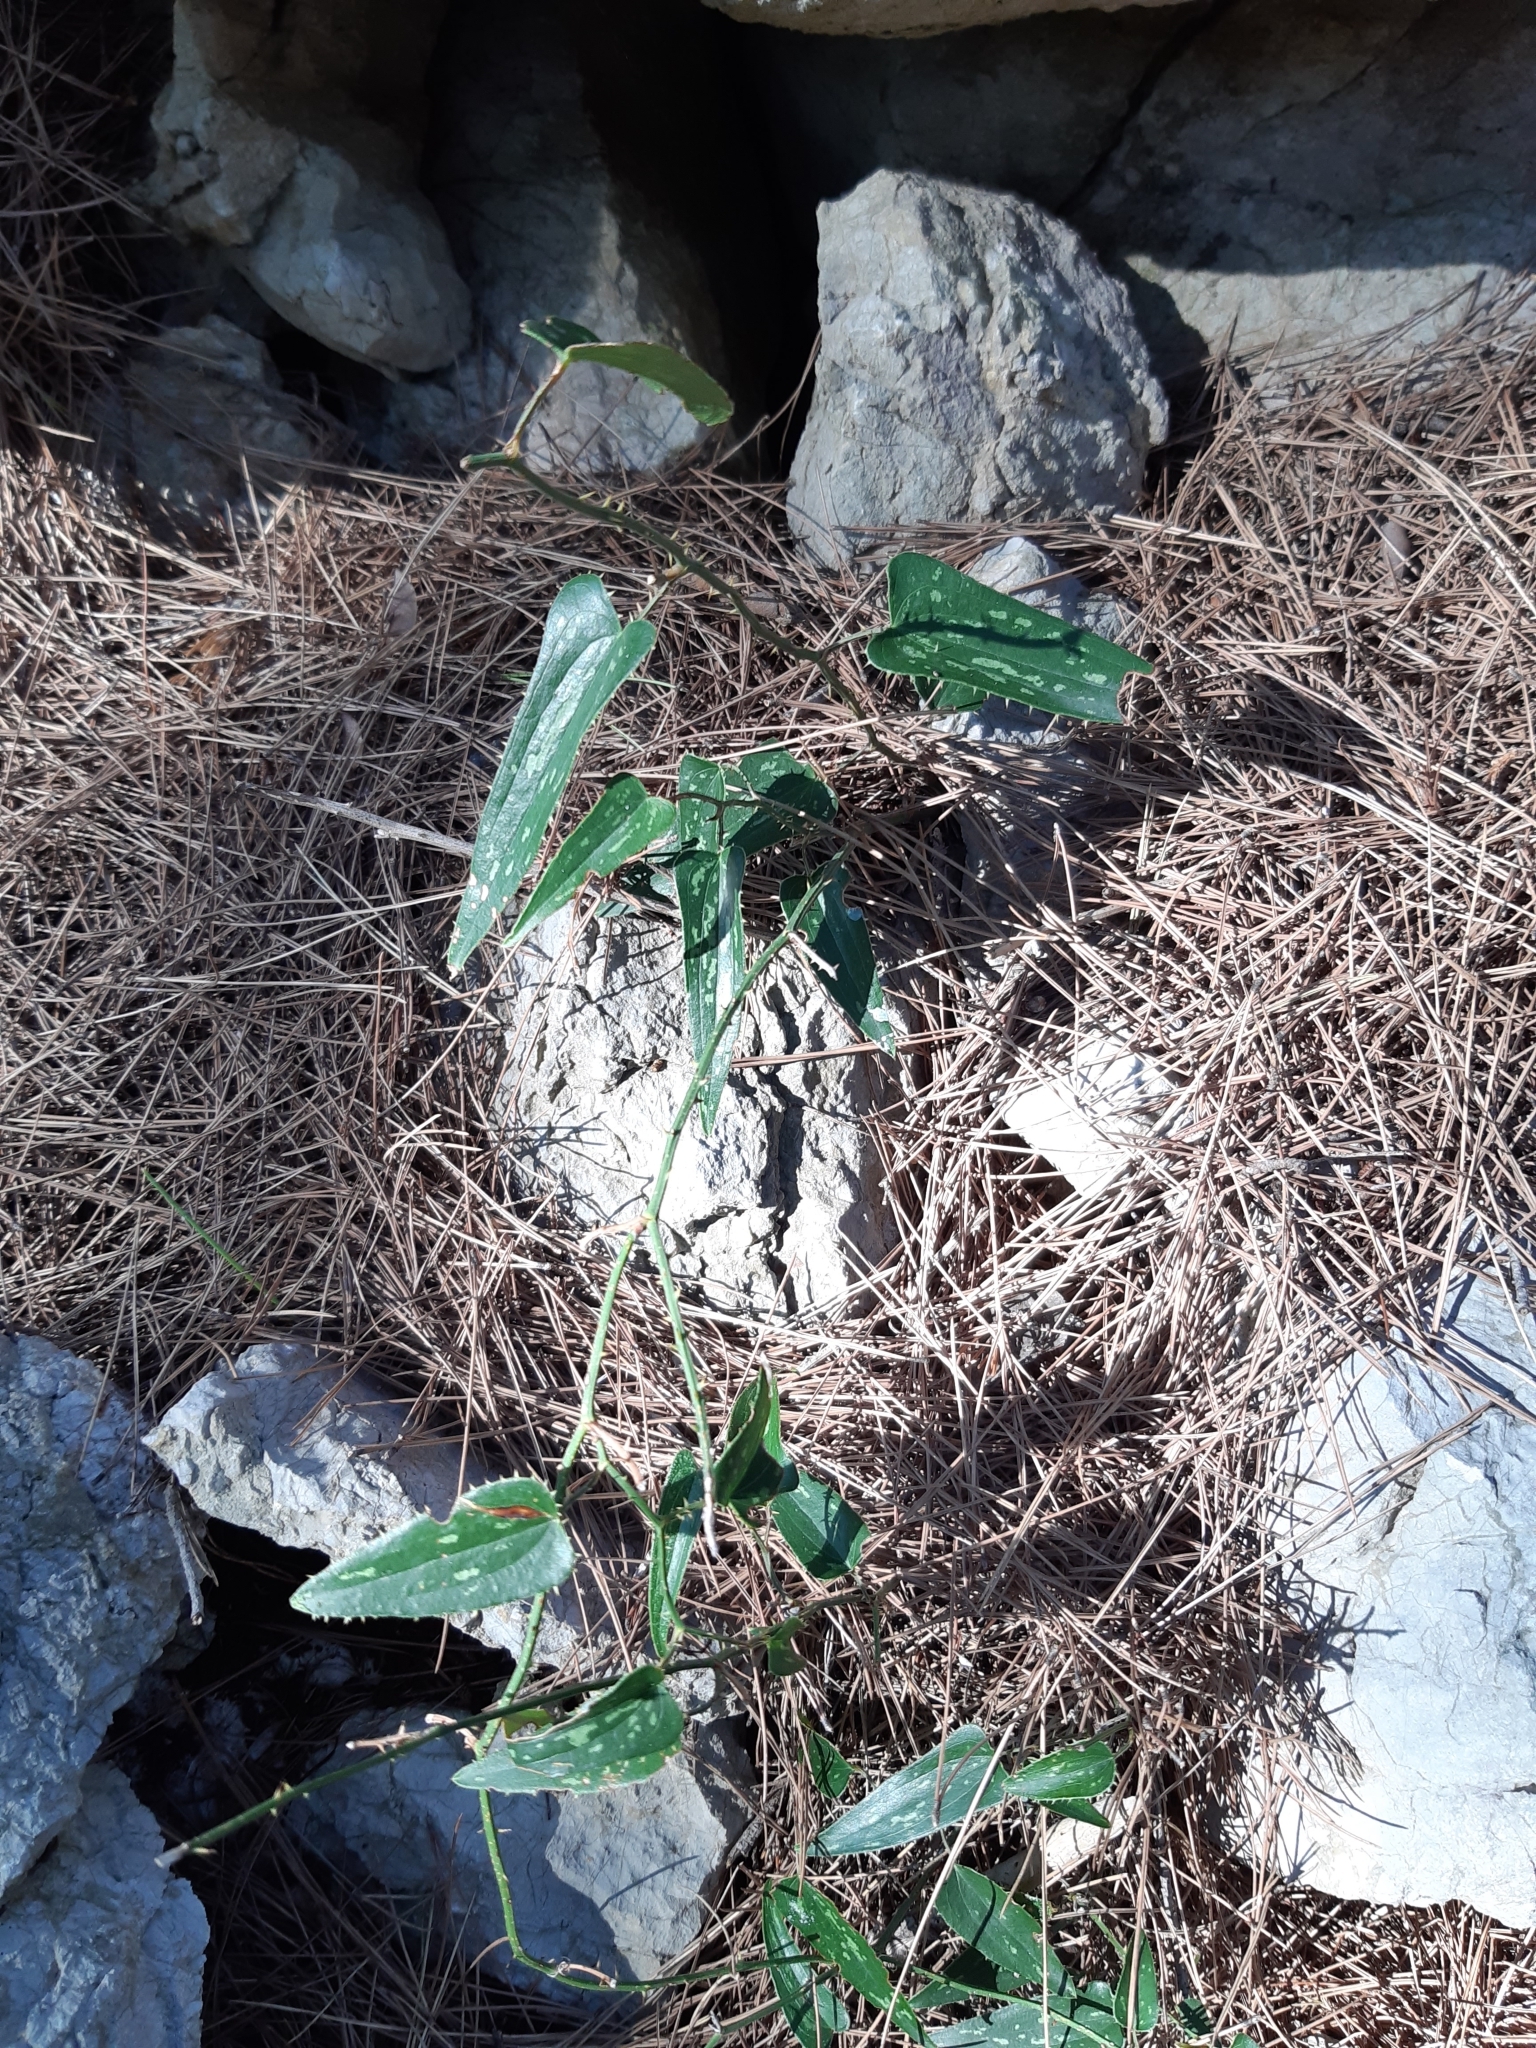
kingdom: Plantae
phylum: Tracheophyta
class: Liliopsida
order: Liliales
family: Smilacaceae
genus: Smilax
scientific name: Smilax aspera
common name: Common smilax
